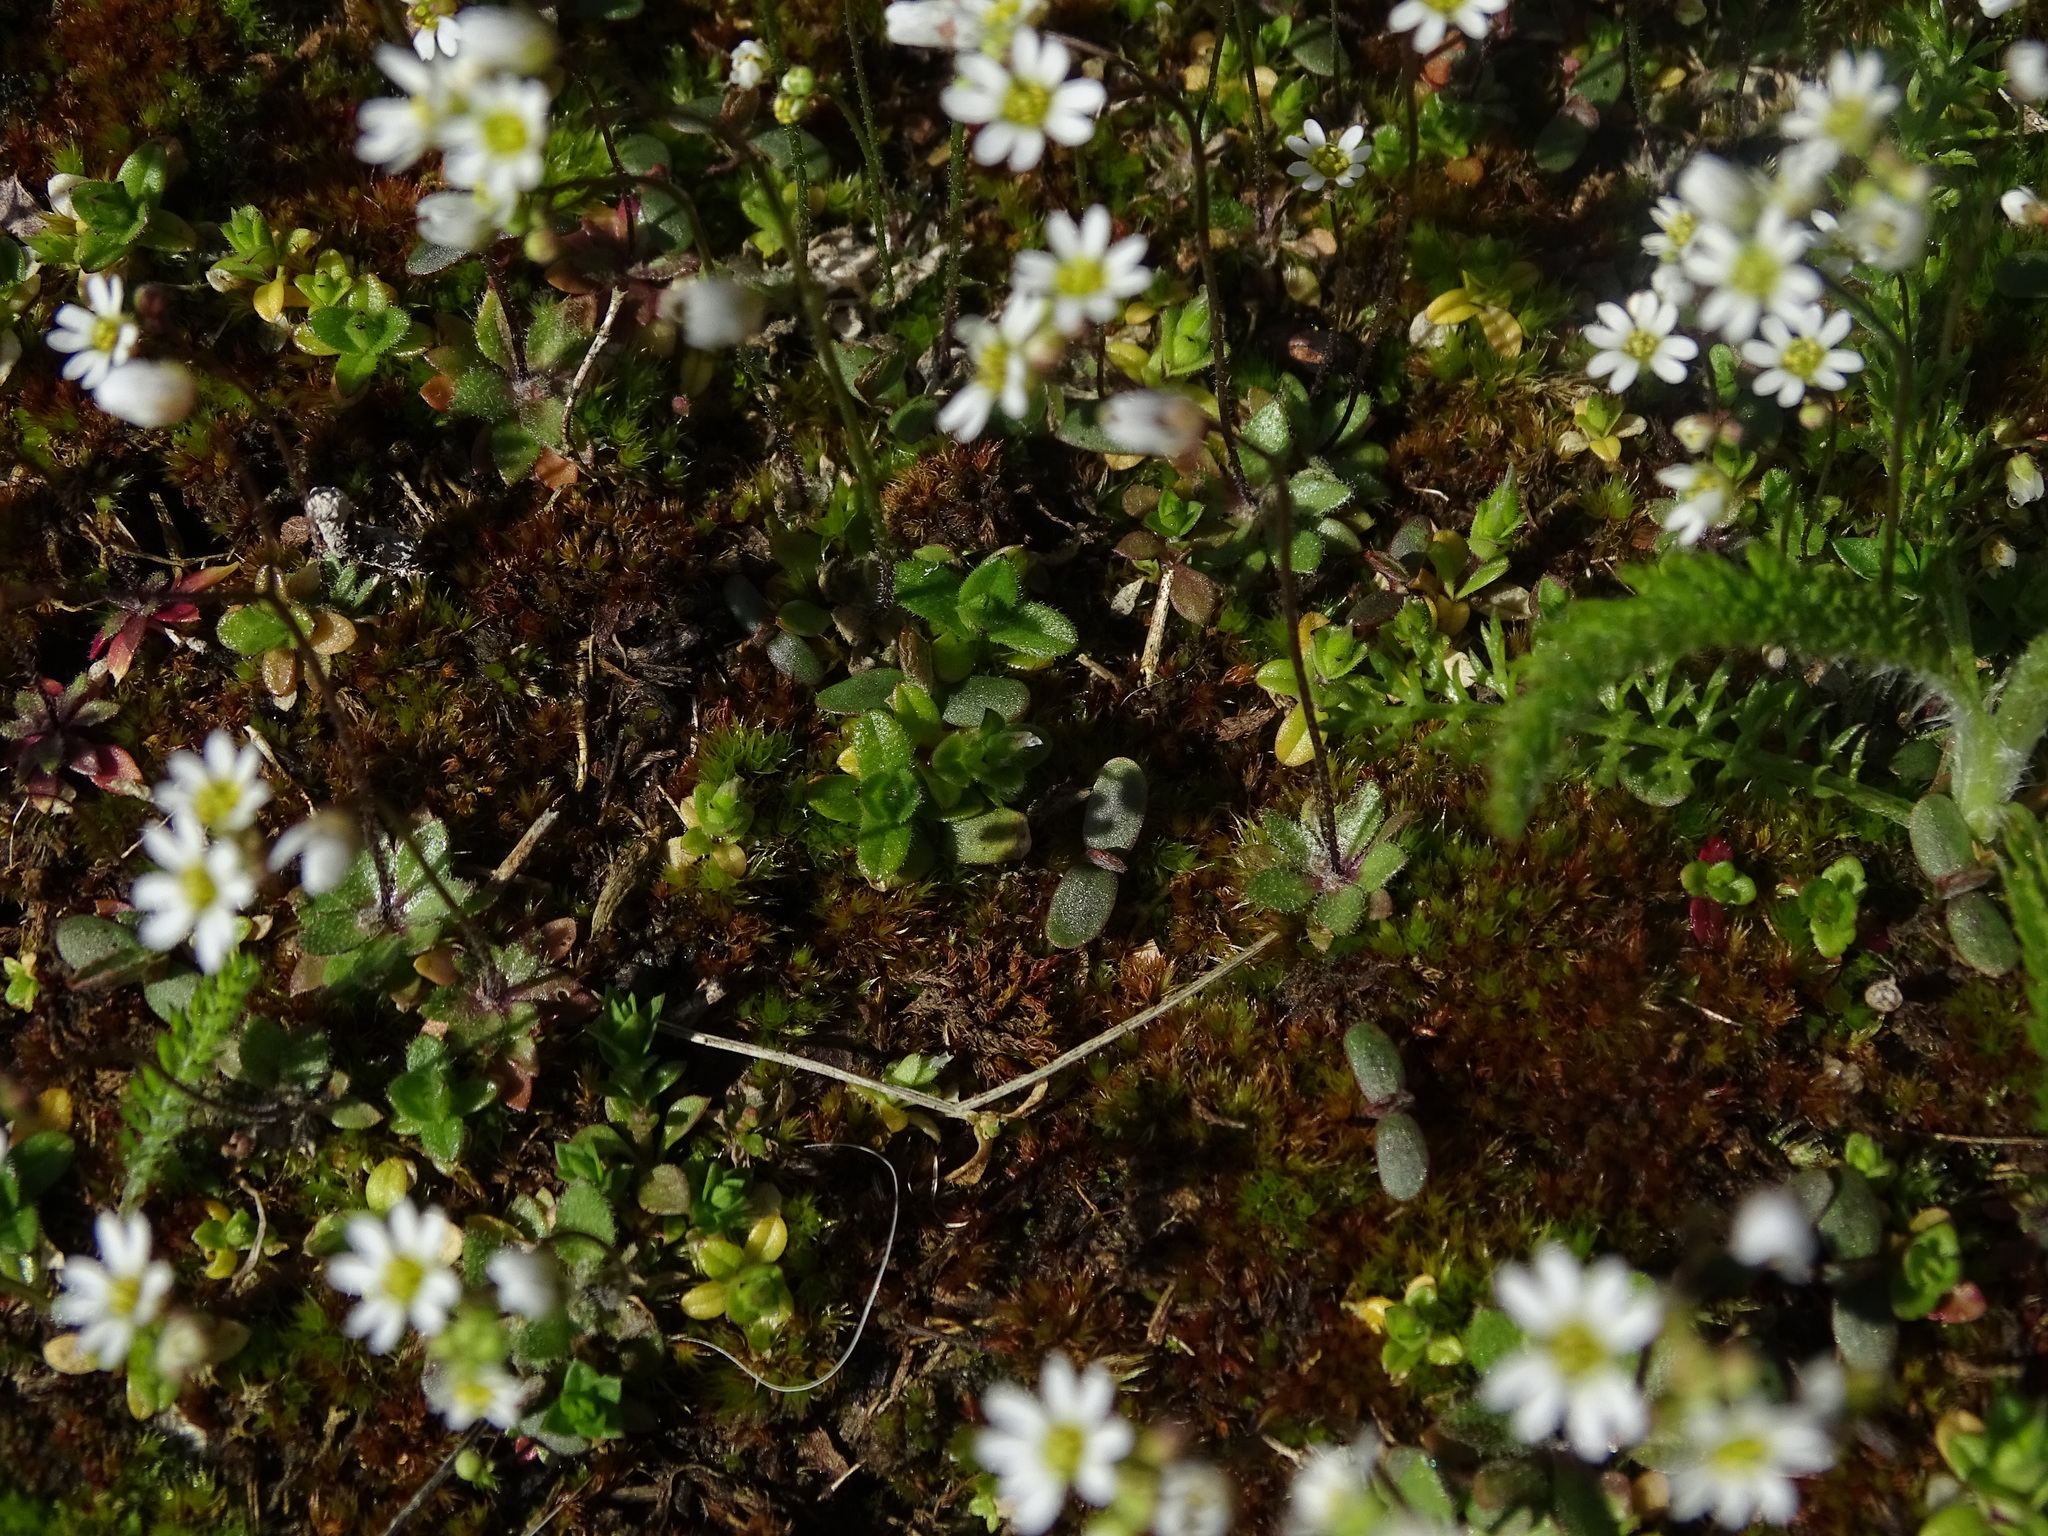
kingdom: Plantae
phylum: Tracheophyta
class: Magnoliopsida
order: Brassicales
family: Brassicaceae
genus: Draba
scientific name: Draba verna
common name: Spring draba
